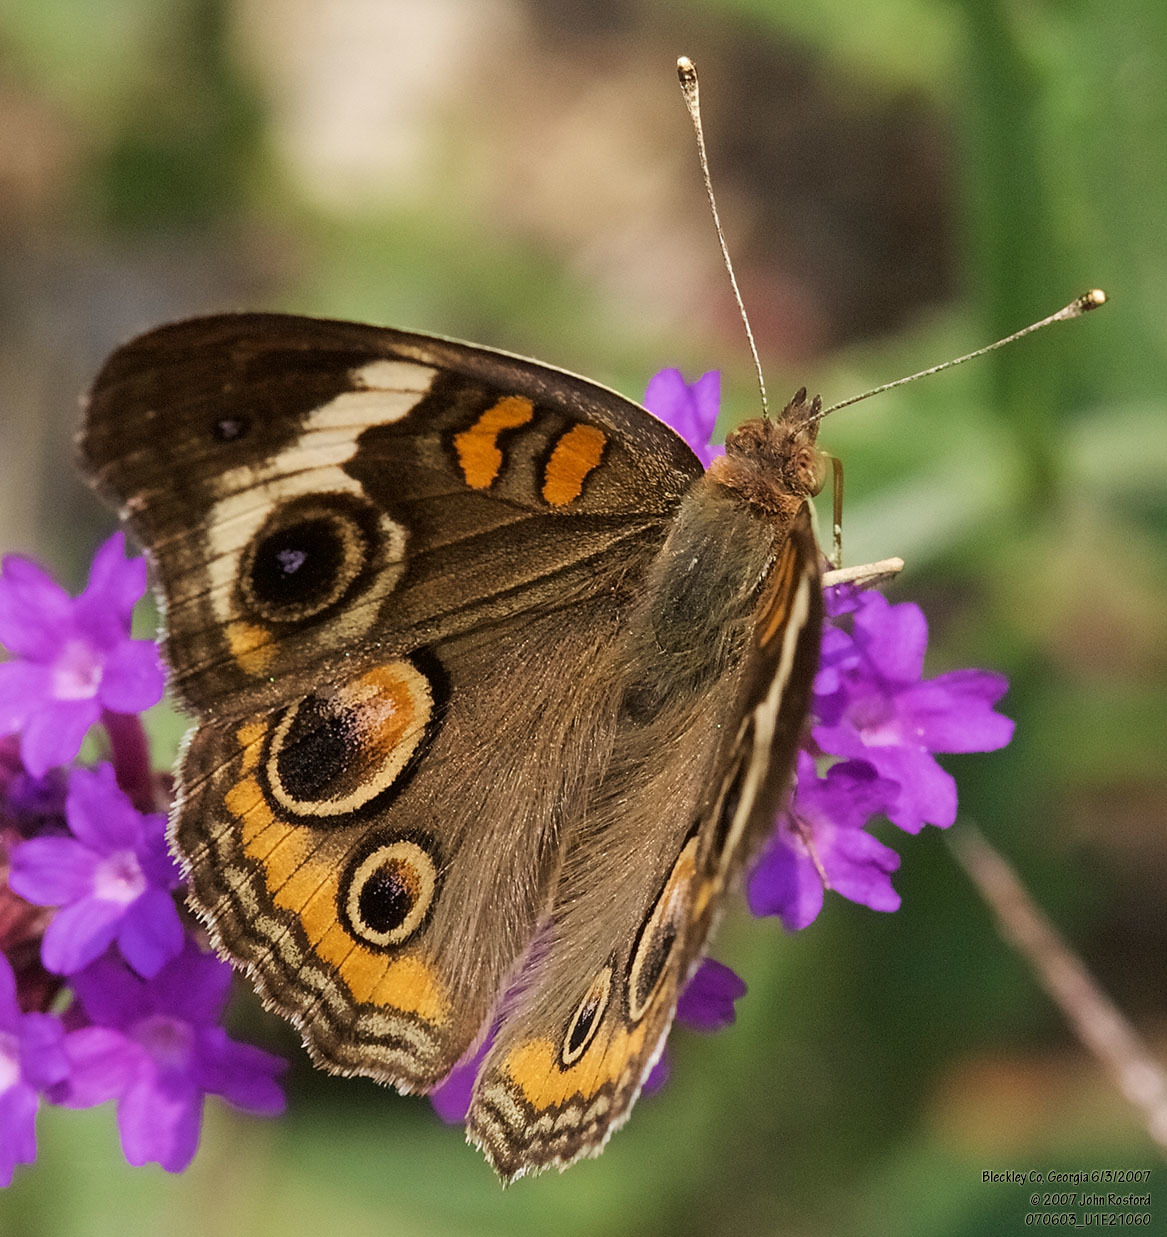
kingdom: Animalia
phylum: Arthropoda
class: Insecta
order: Lepidoptera
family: Nymphalidae
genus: Junonia
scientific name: Junonia coenia
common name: Common buckeye
